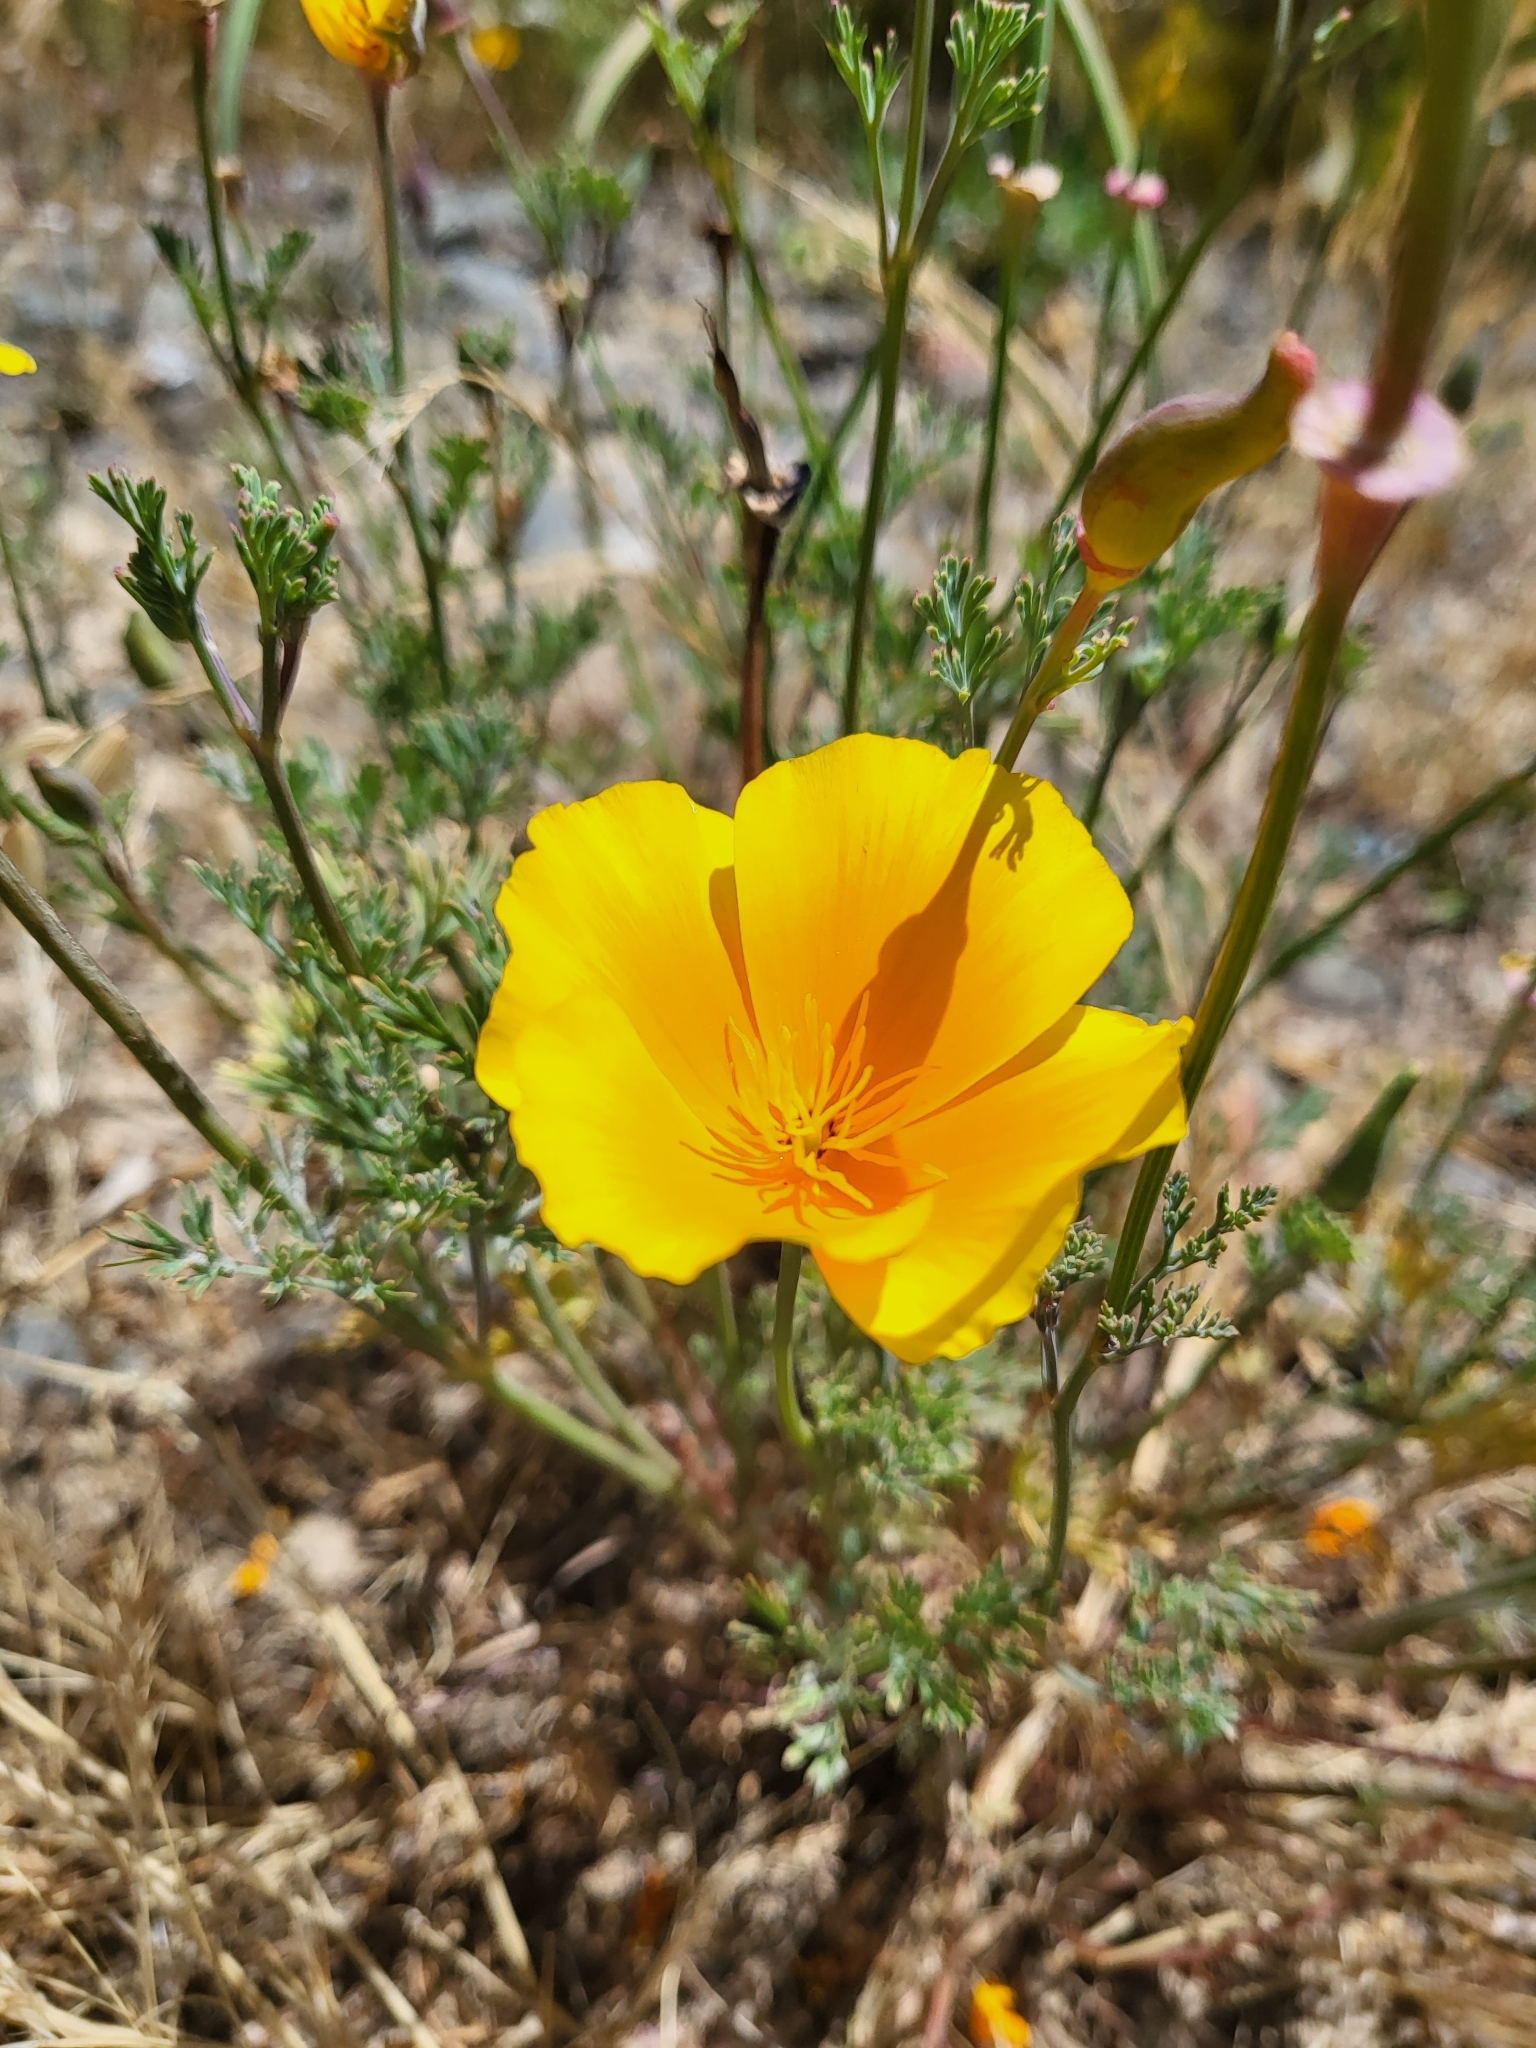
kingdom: Plantae
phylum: Tracheophyta
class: Magnoliopsida
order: Ranunculales
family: Papaveraceae
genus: Eschscholzia
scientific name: Eschscholzia californica
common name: California poppy
